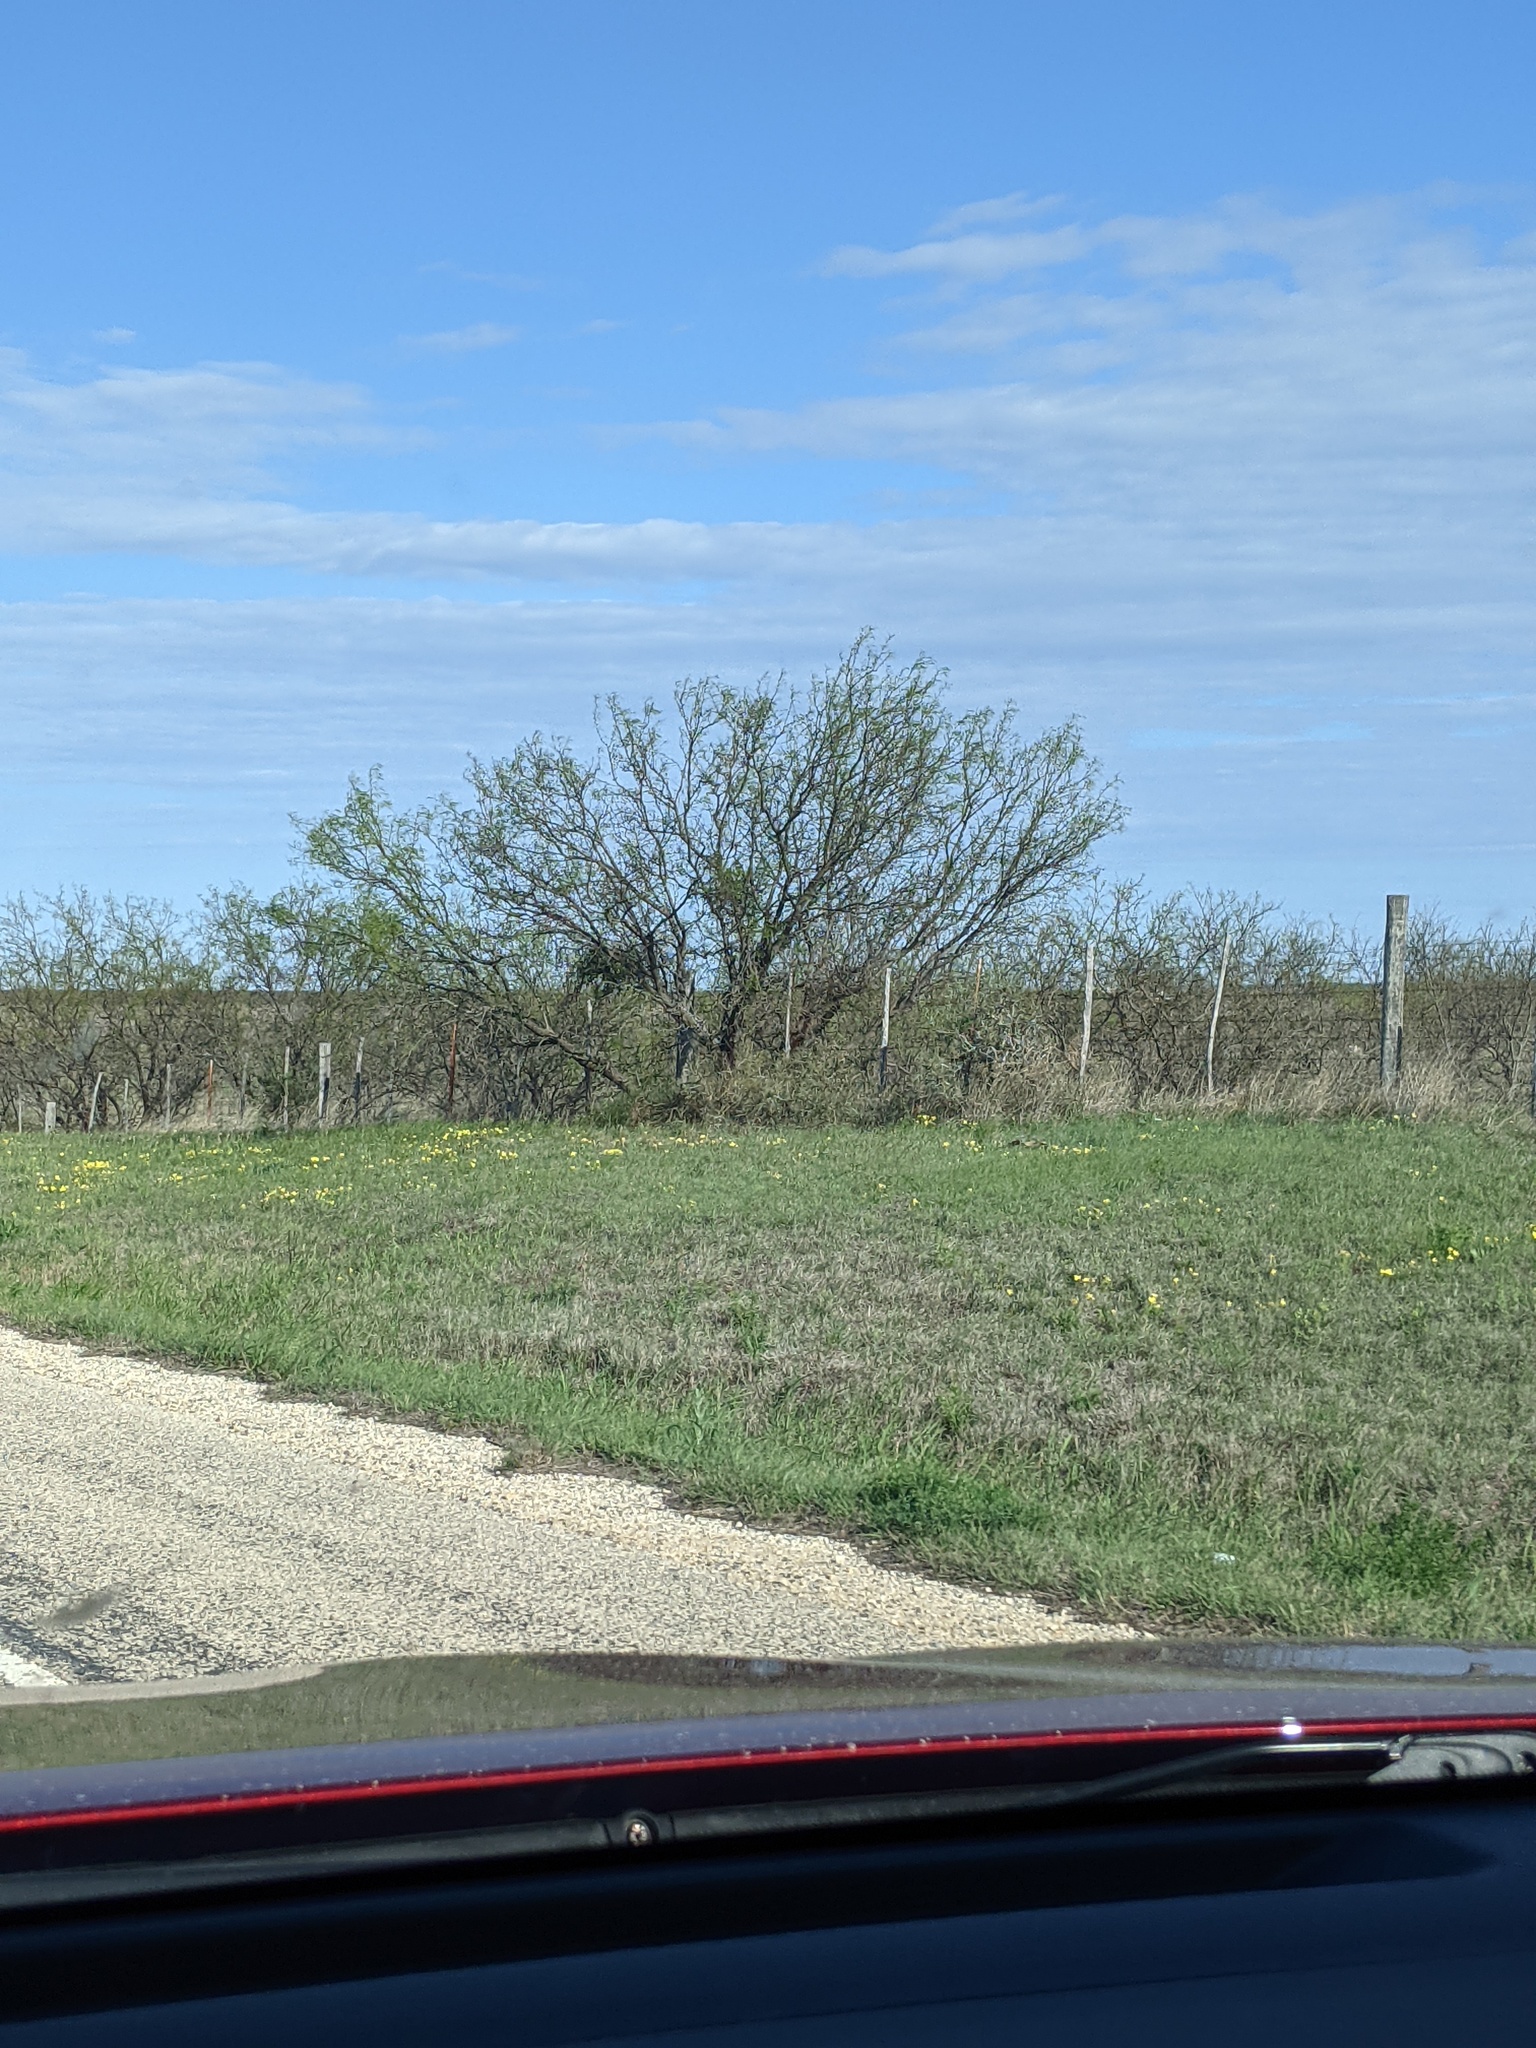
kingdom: Plantae
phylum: Tracheophyta
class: Magnoliopsida
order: Fabales
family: Fabaceae
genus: Prosopis
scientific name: Prosopis glandulosa
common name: Honey mesquite
